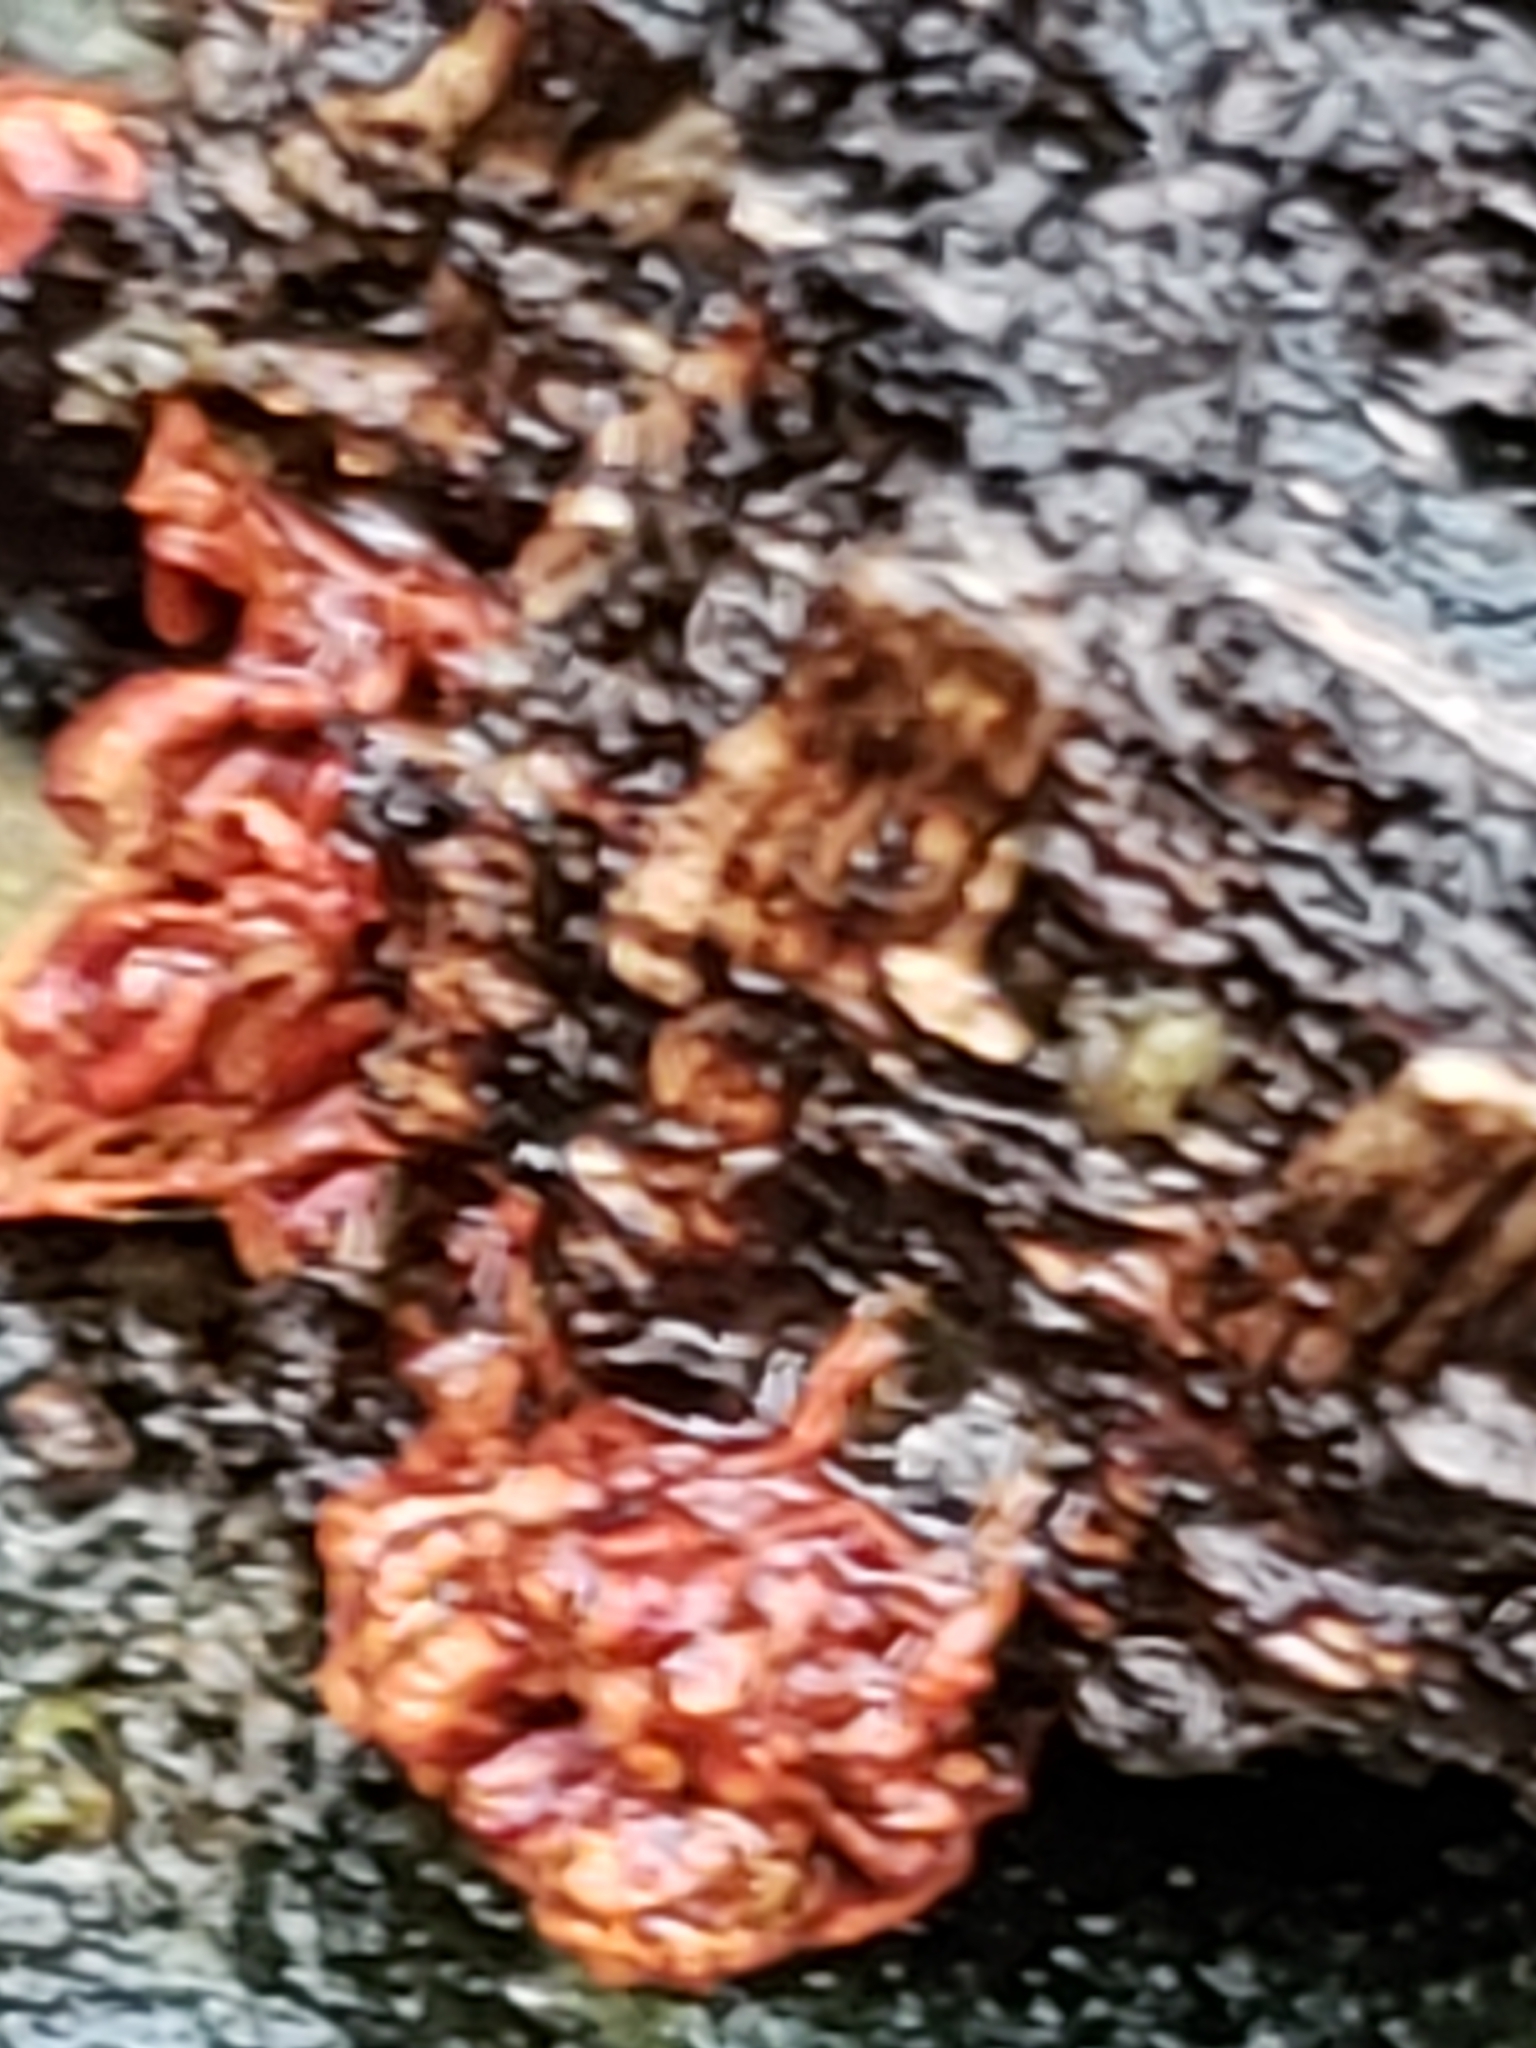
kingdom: Protozoa
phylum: Mycetozoa
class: Myxomycetes
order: Trichiales
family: Trichiaceae
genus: Metatrichia
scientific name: Metatrichia vesparia
